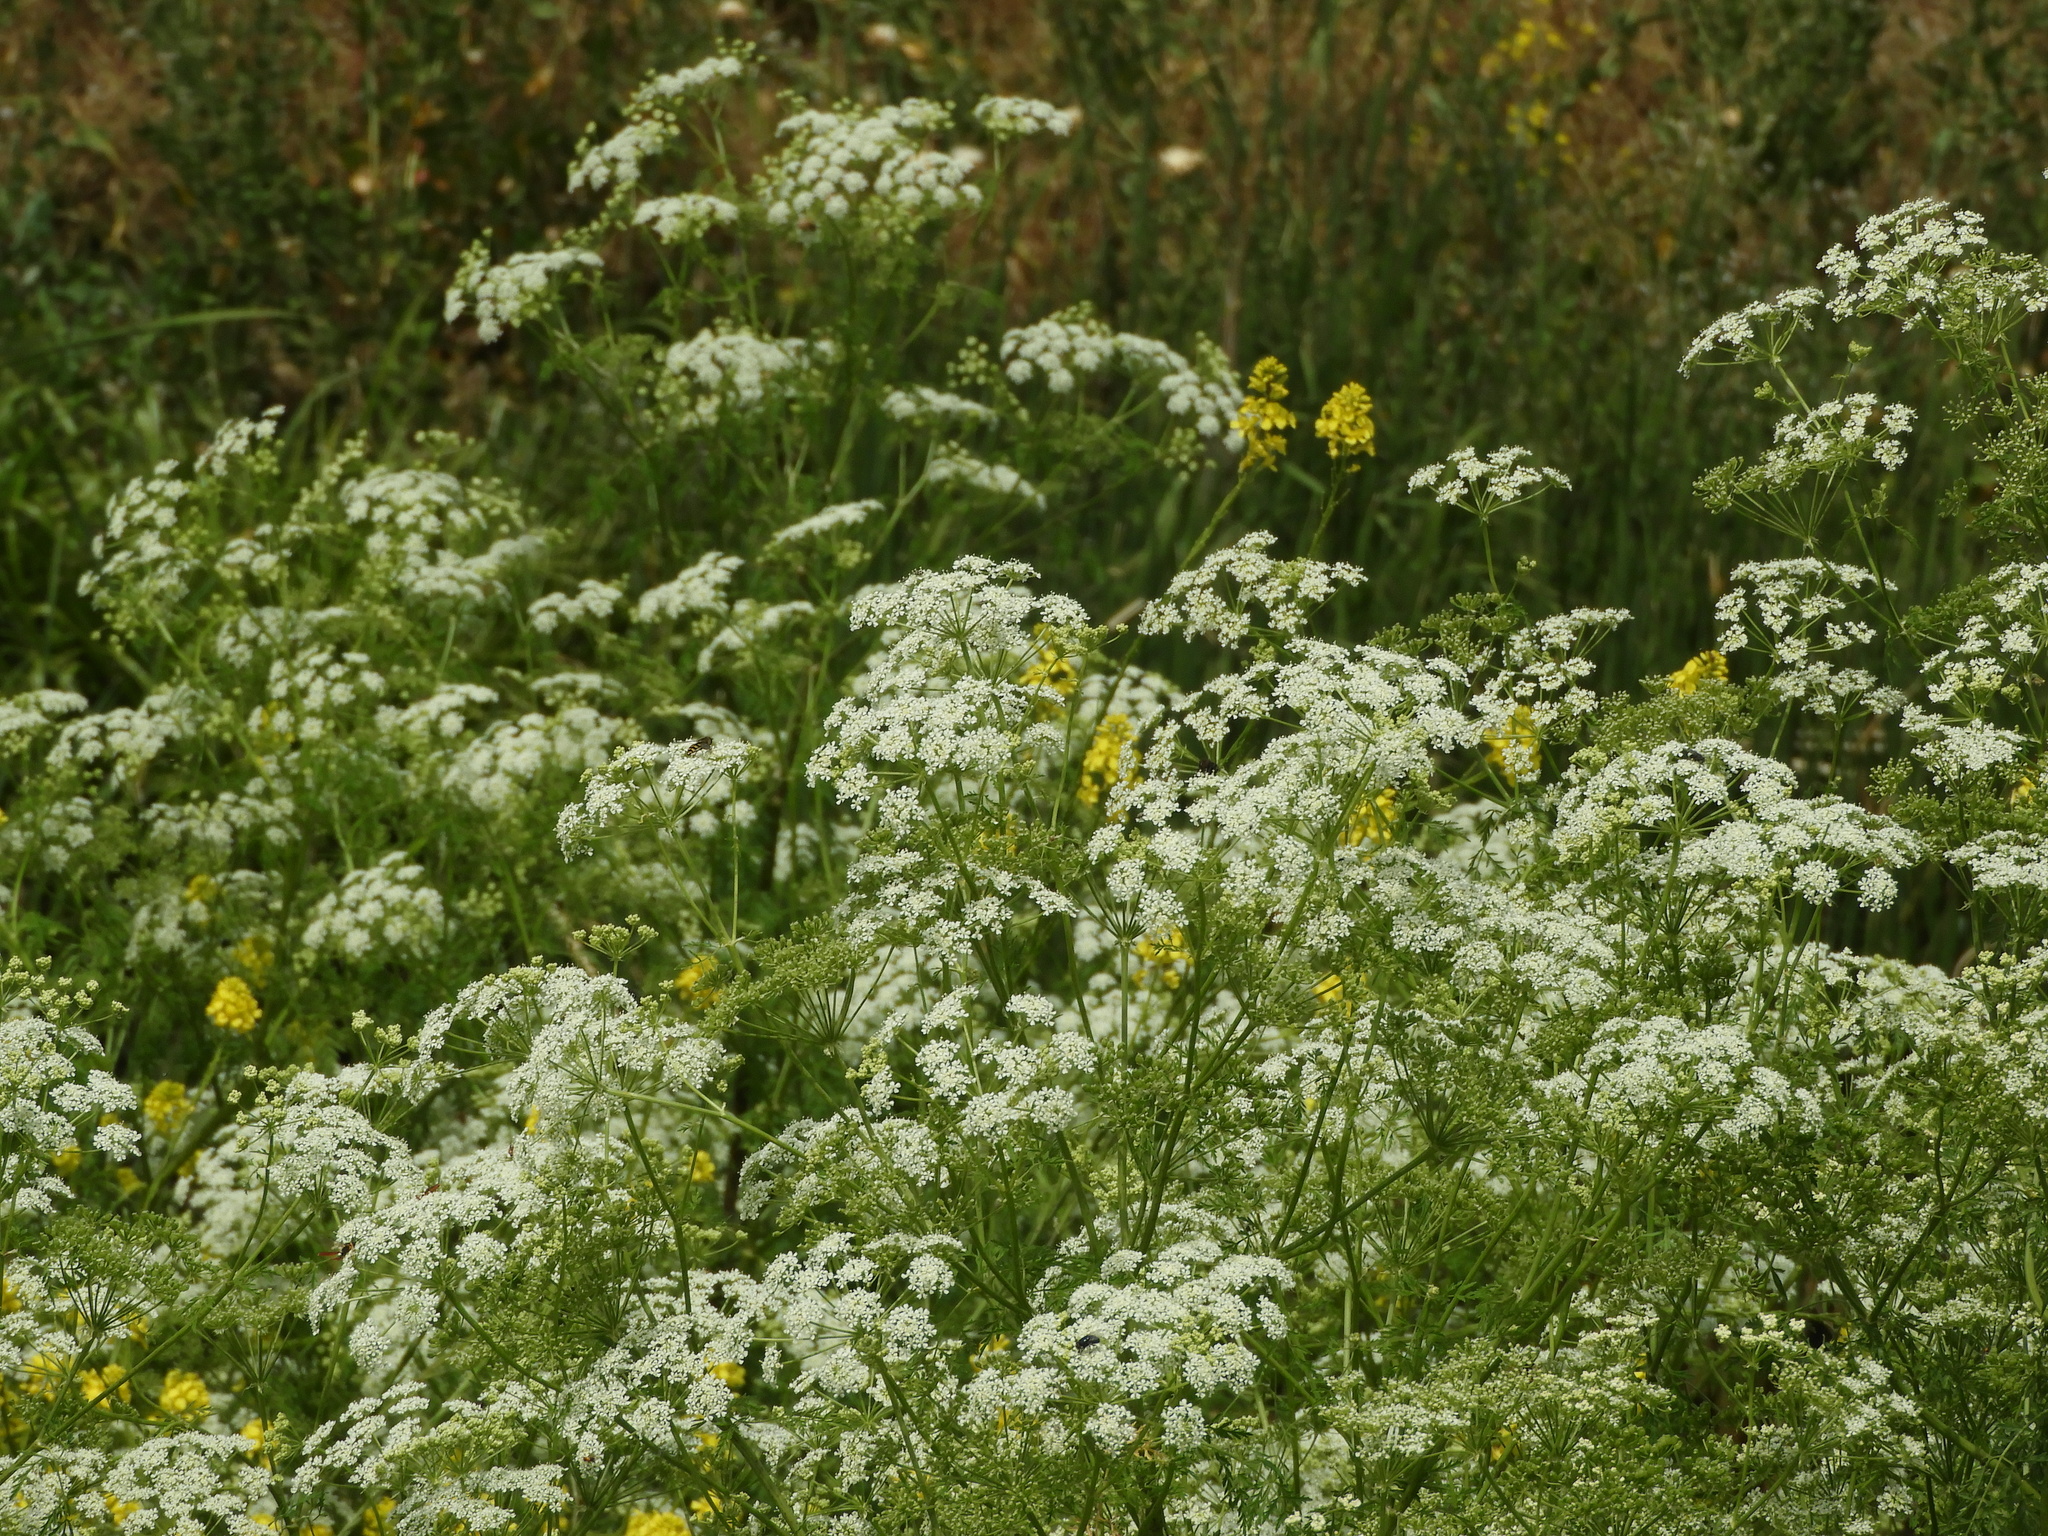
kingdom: Plantae
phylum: Tracheophyta
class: Magnoliopsida
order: Apiales
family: Apiaceae
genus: Conium
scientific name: Conium maculatum
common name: Hemlock
